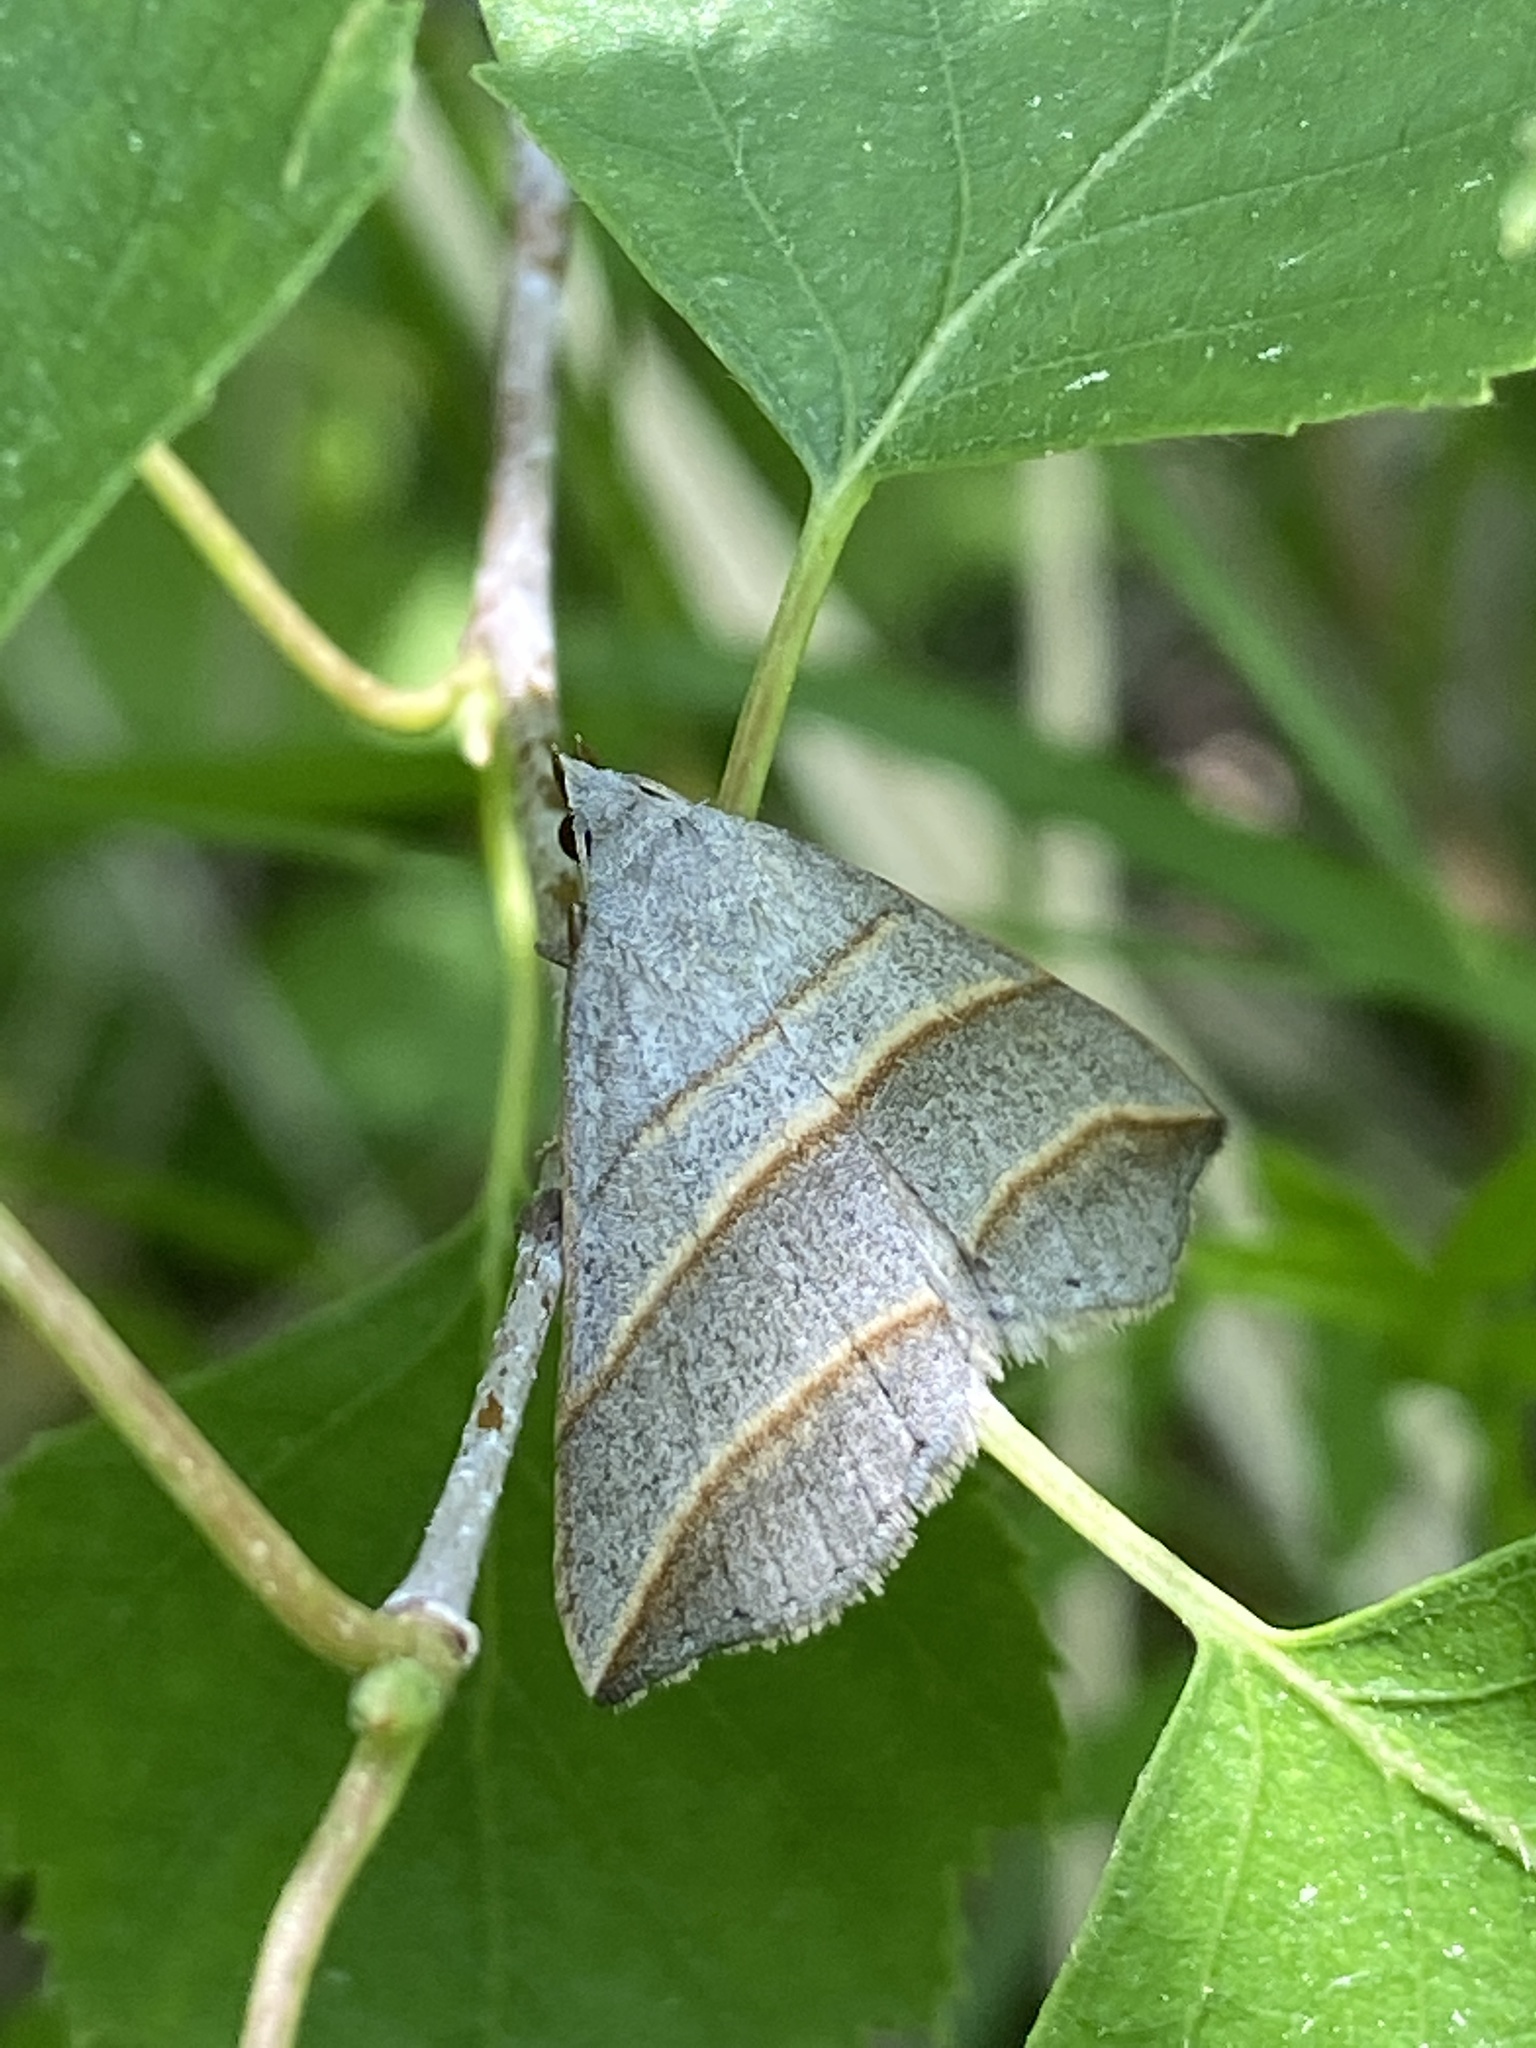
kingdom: Animalia
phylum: Arthropoda
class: Insecta
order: Lepidoptera
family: Erebidae
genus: Colobochyla
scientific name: Colobochyla salicalis
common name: Lesser belle
